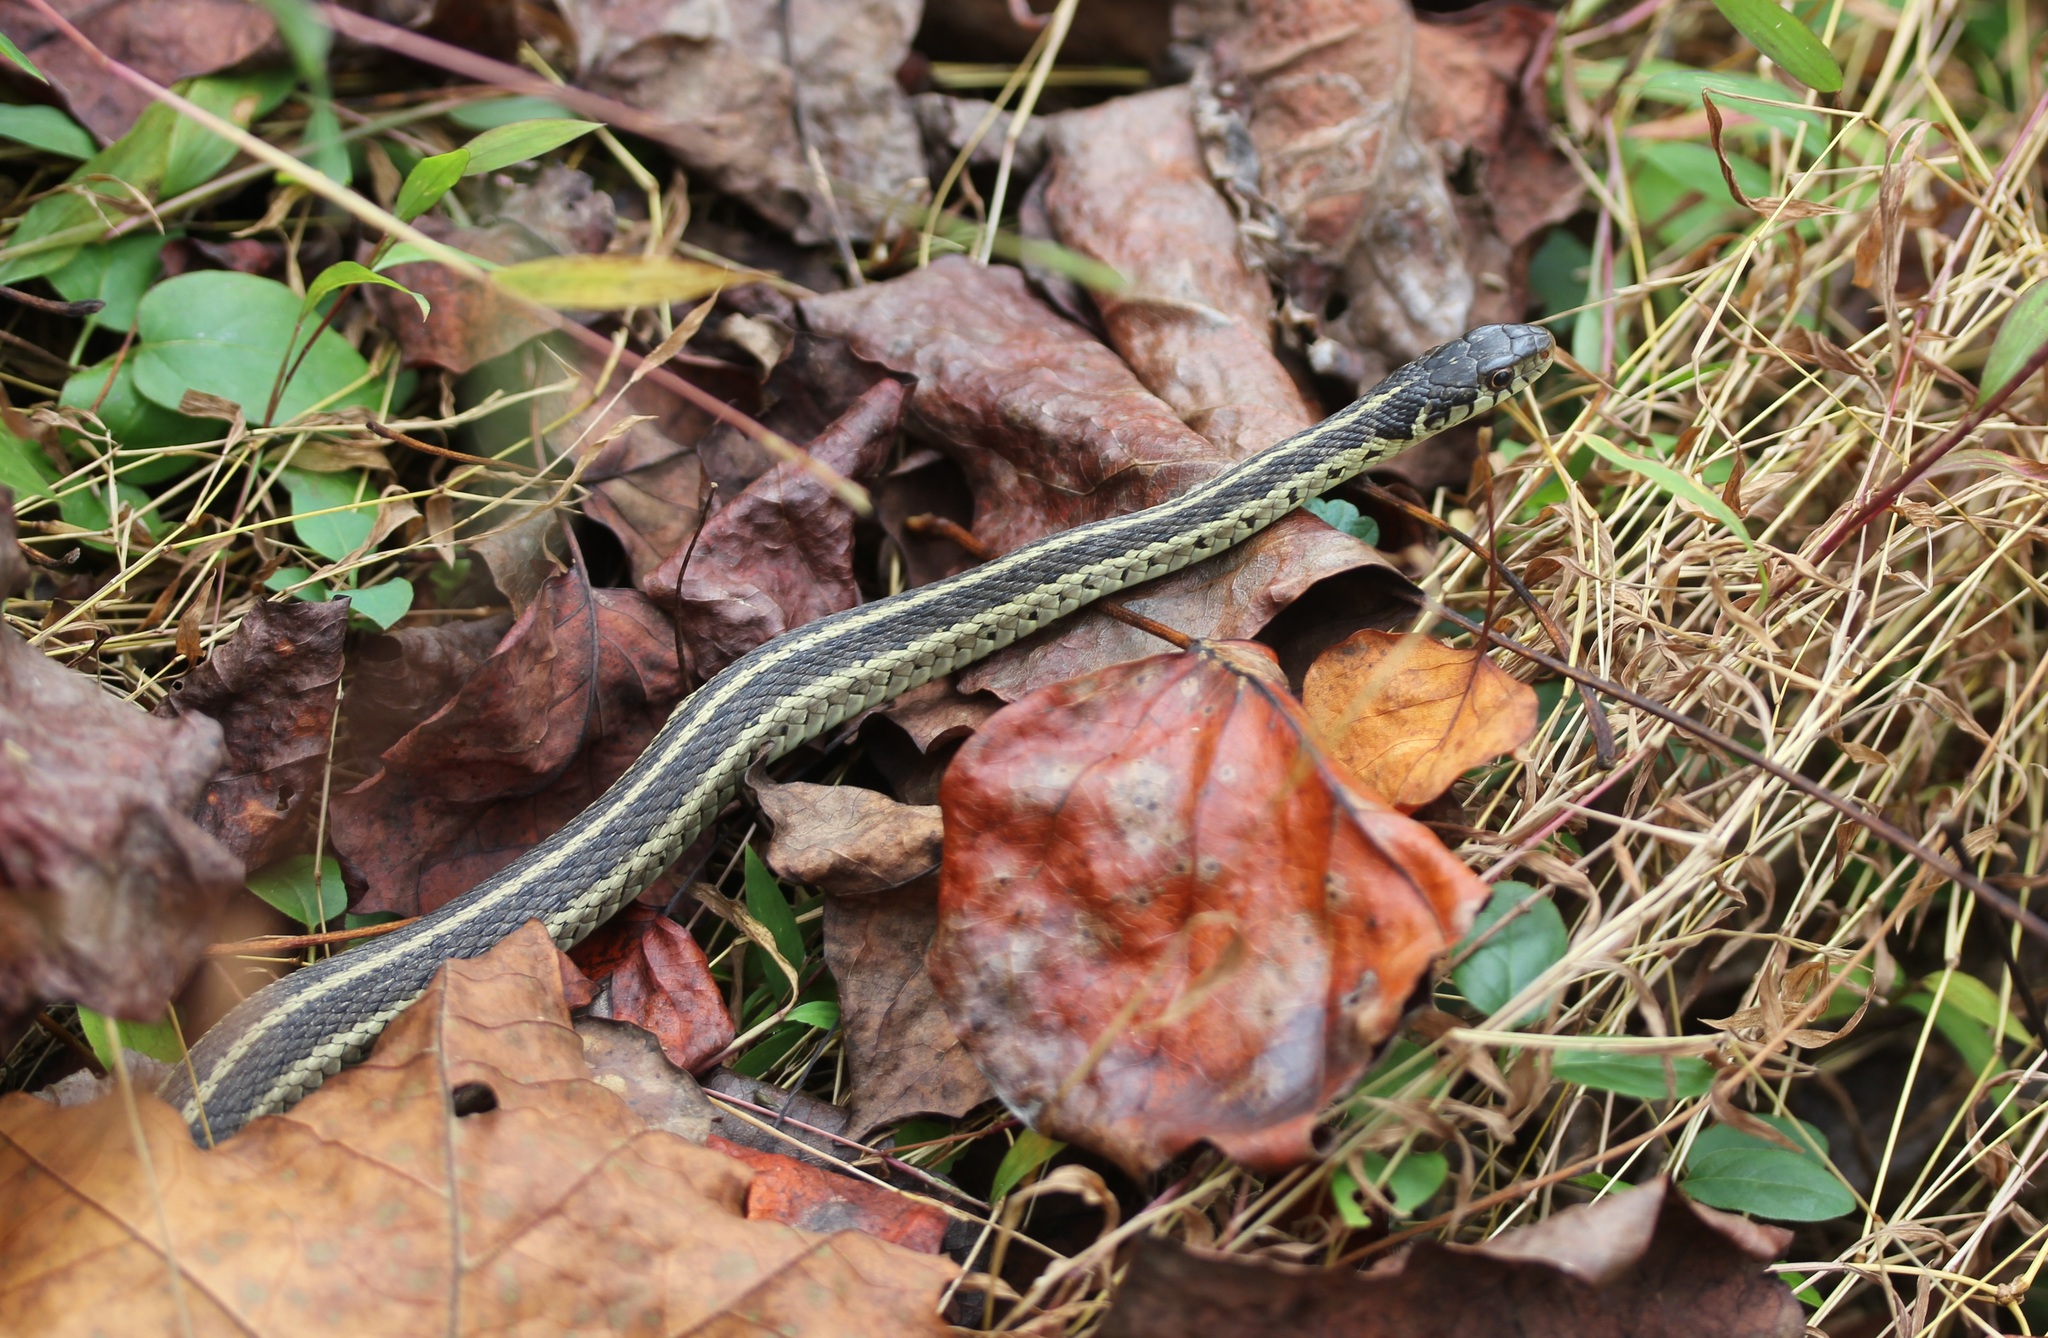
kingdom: Animalia
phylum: Chordata
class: Squamata
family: Colubridae
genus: Thamnophis
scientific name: Thamnophis sirtalis
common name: Common garter snake
